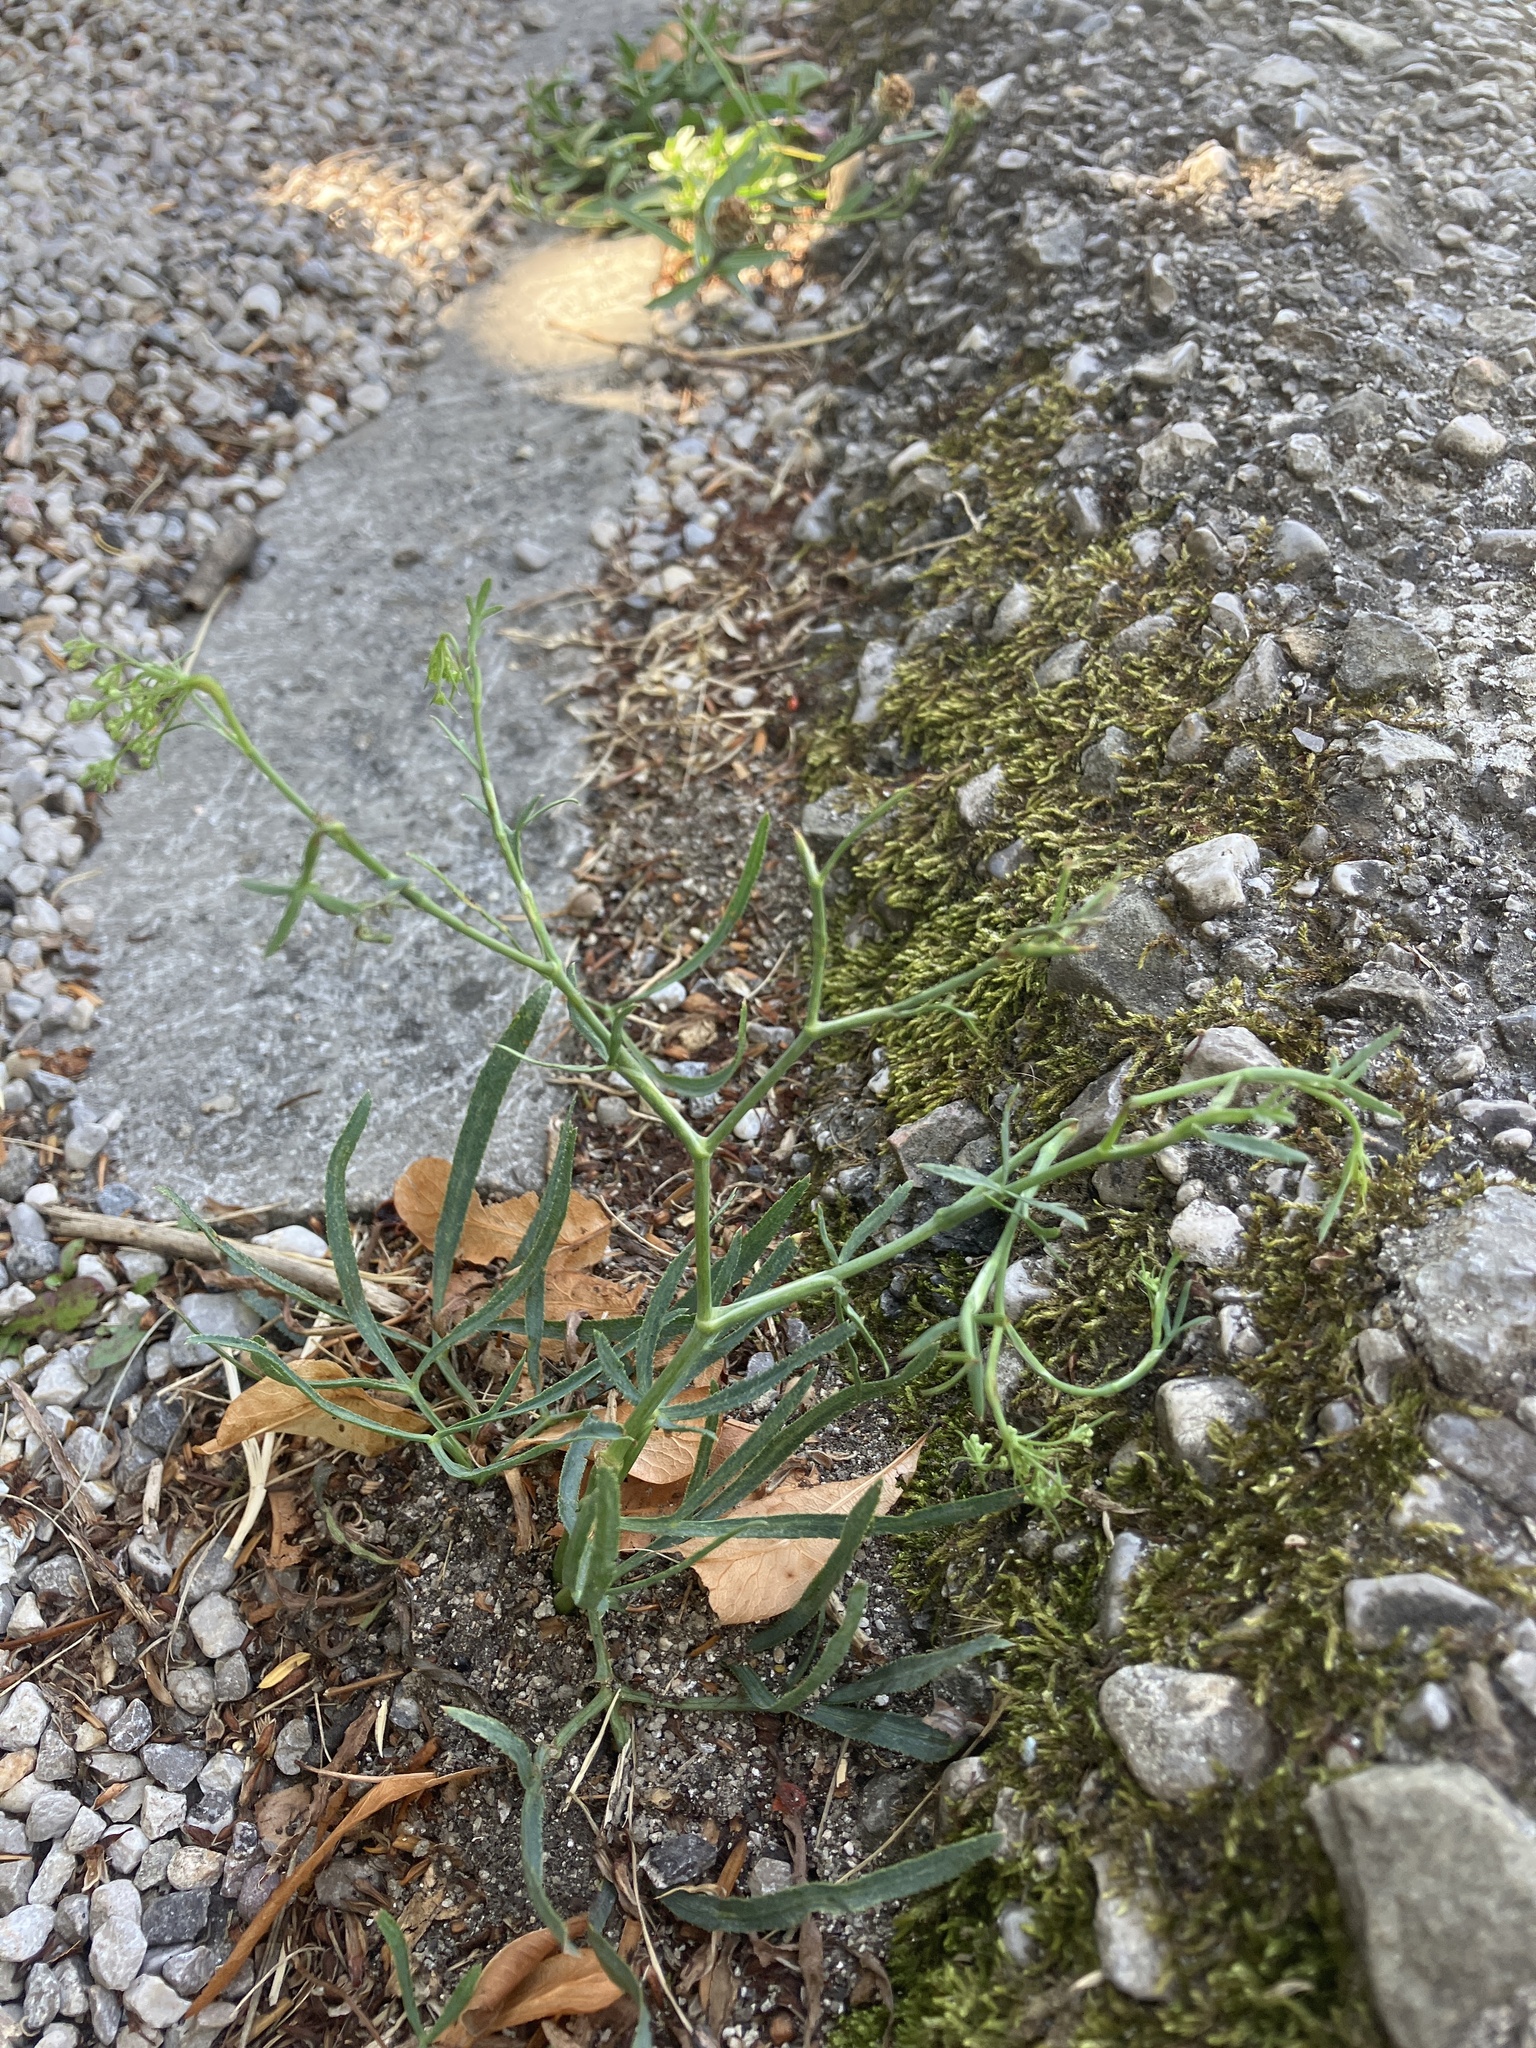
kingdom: Plantae
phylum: Tracheophyta
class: Magnoliopsida
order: Apiales
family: Apiaceae
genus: Falcaria
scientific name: Falcaria vulgaris
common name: Longleaf
